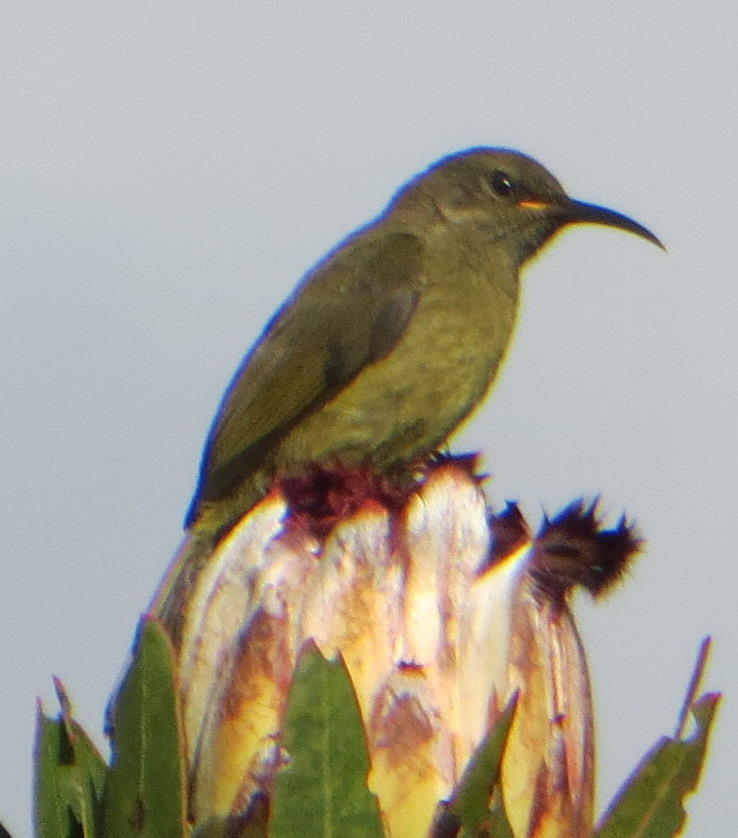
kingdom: Animalia
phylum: Chordata
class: Aves
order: Passeriformes
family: Nectariniidae
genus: Anthobaphes
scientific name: Anthobaphes violacea
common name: Orange-breasted sunbird
